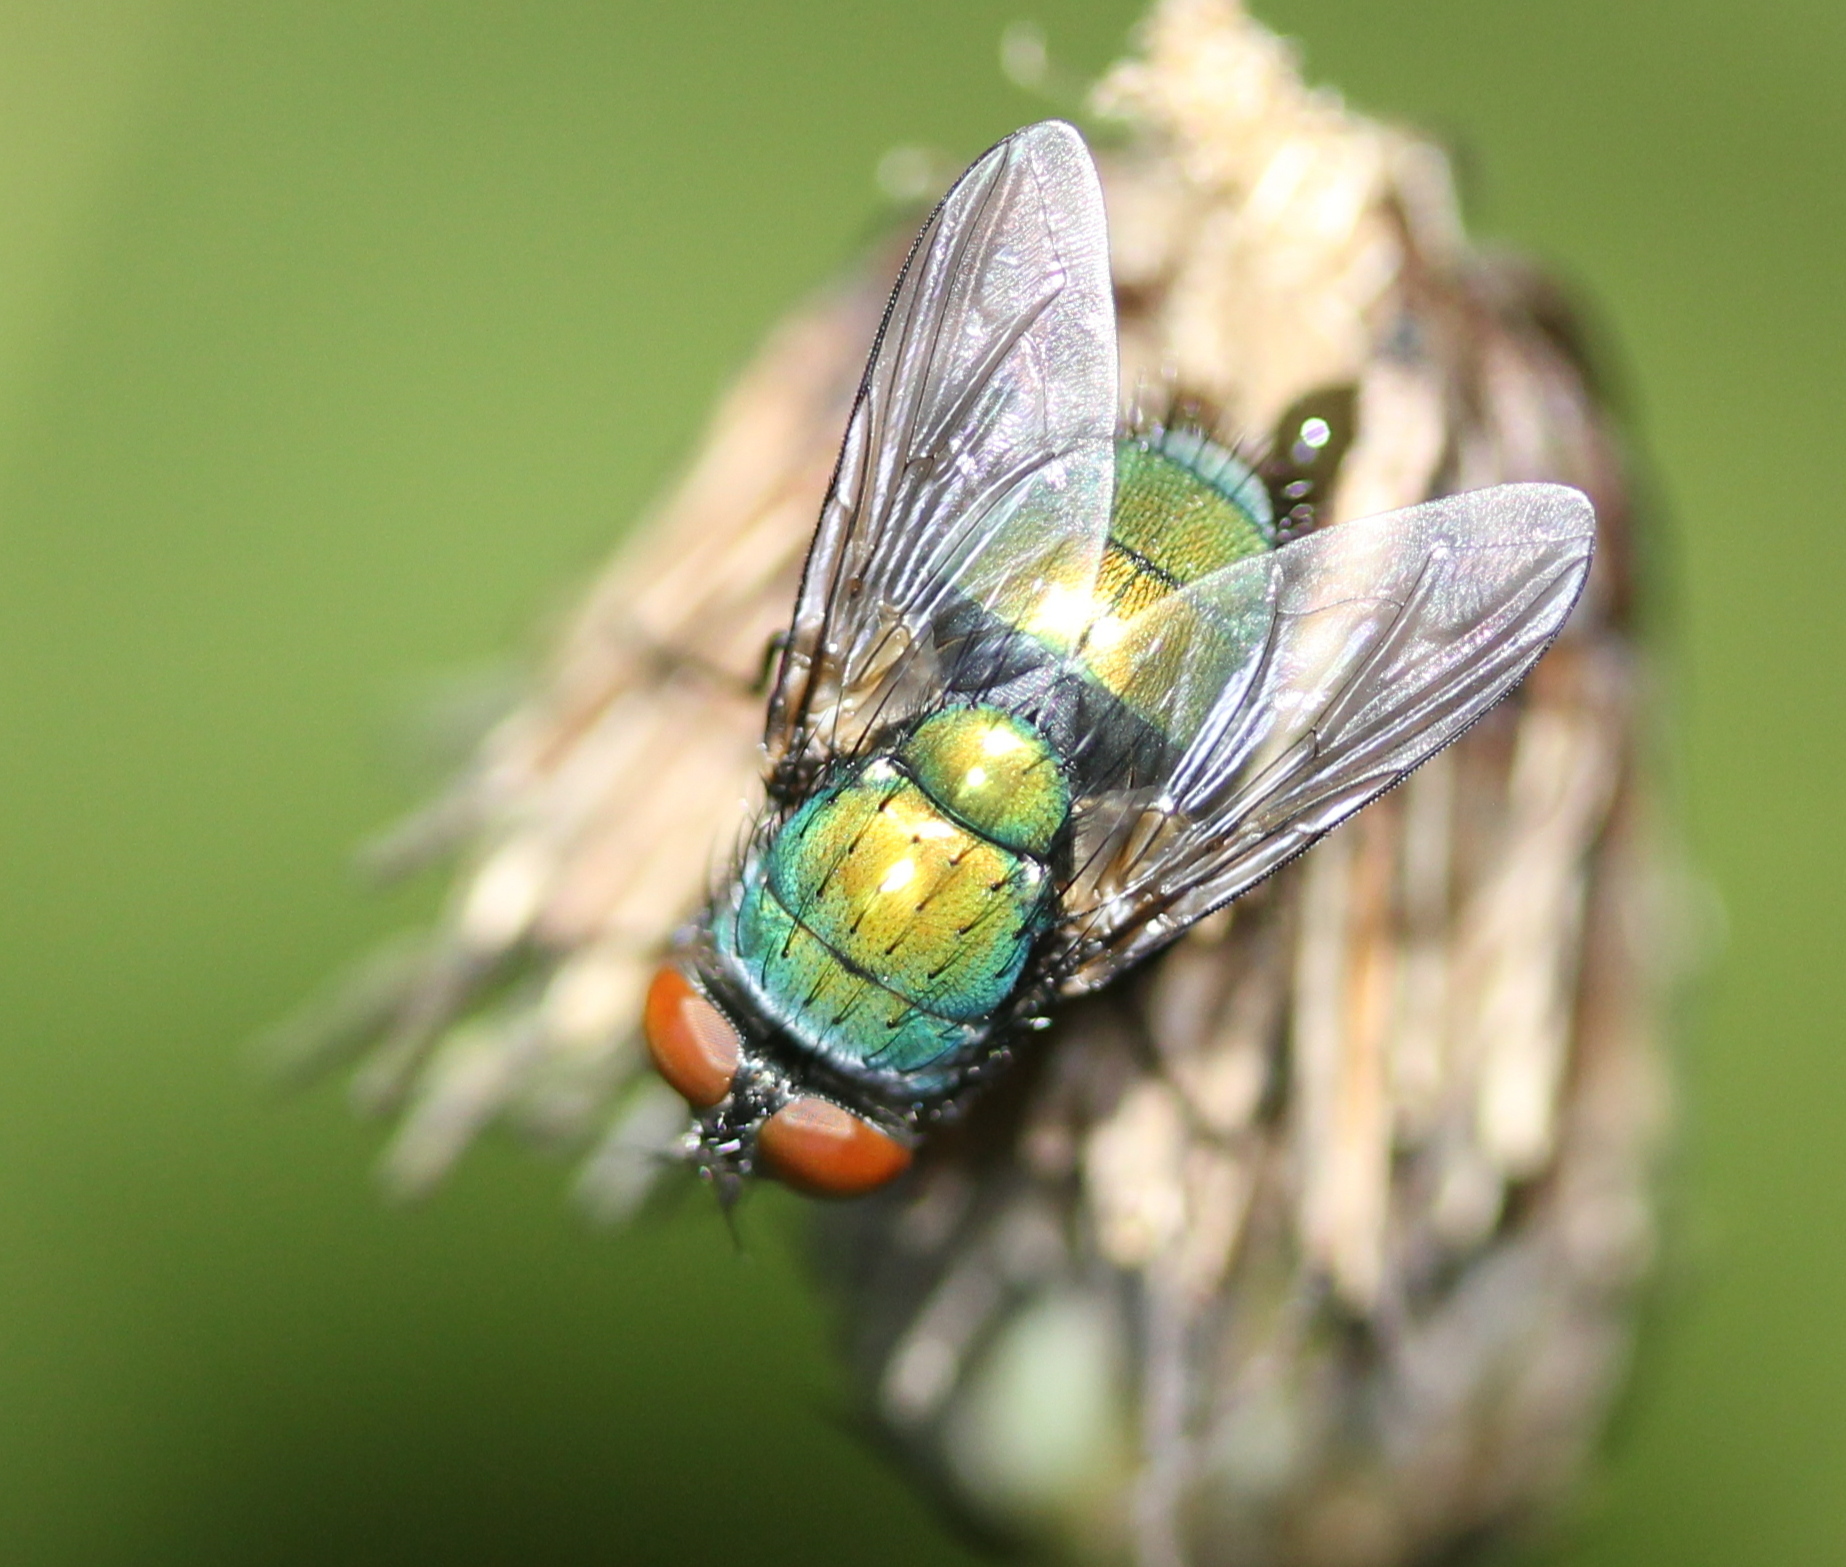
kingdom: Animalia
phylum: Arthropoda
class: Insecta
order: Diptera
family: Calliphoridae
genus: Lucilia
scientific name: Lucilia sericata
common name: Blow fly
